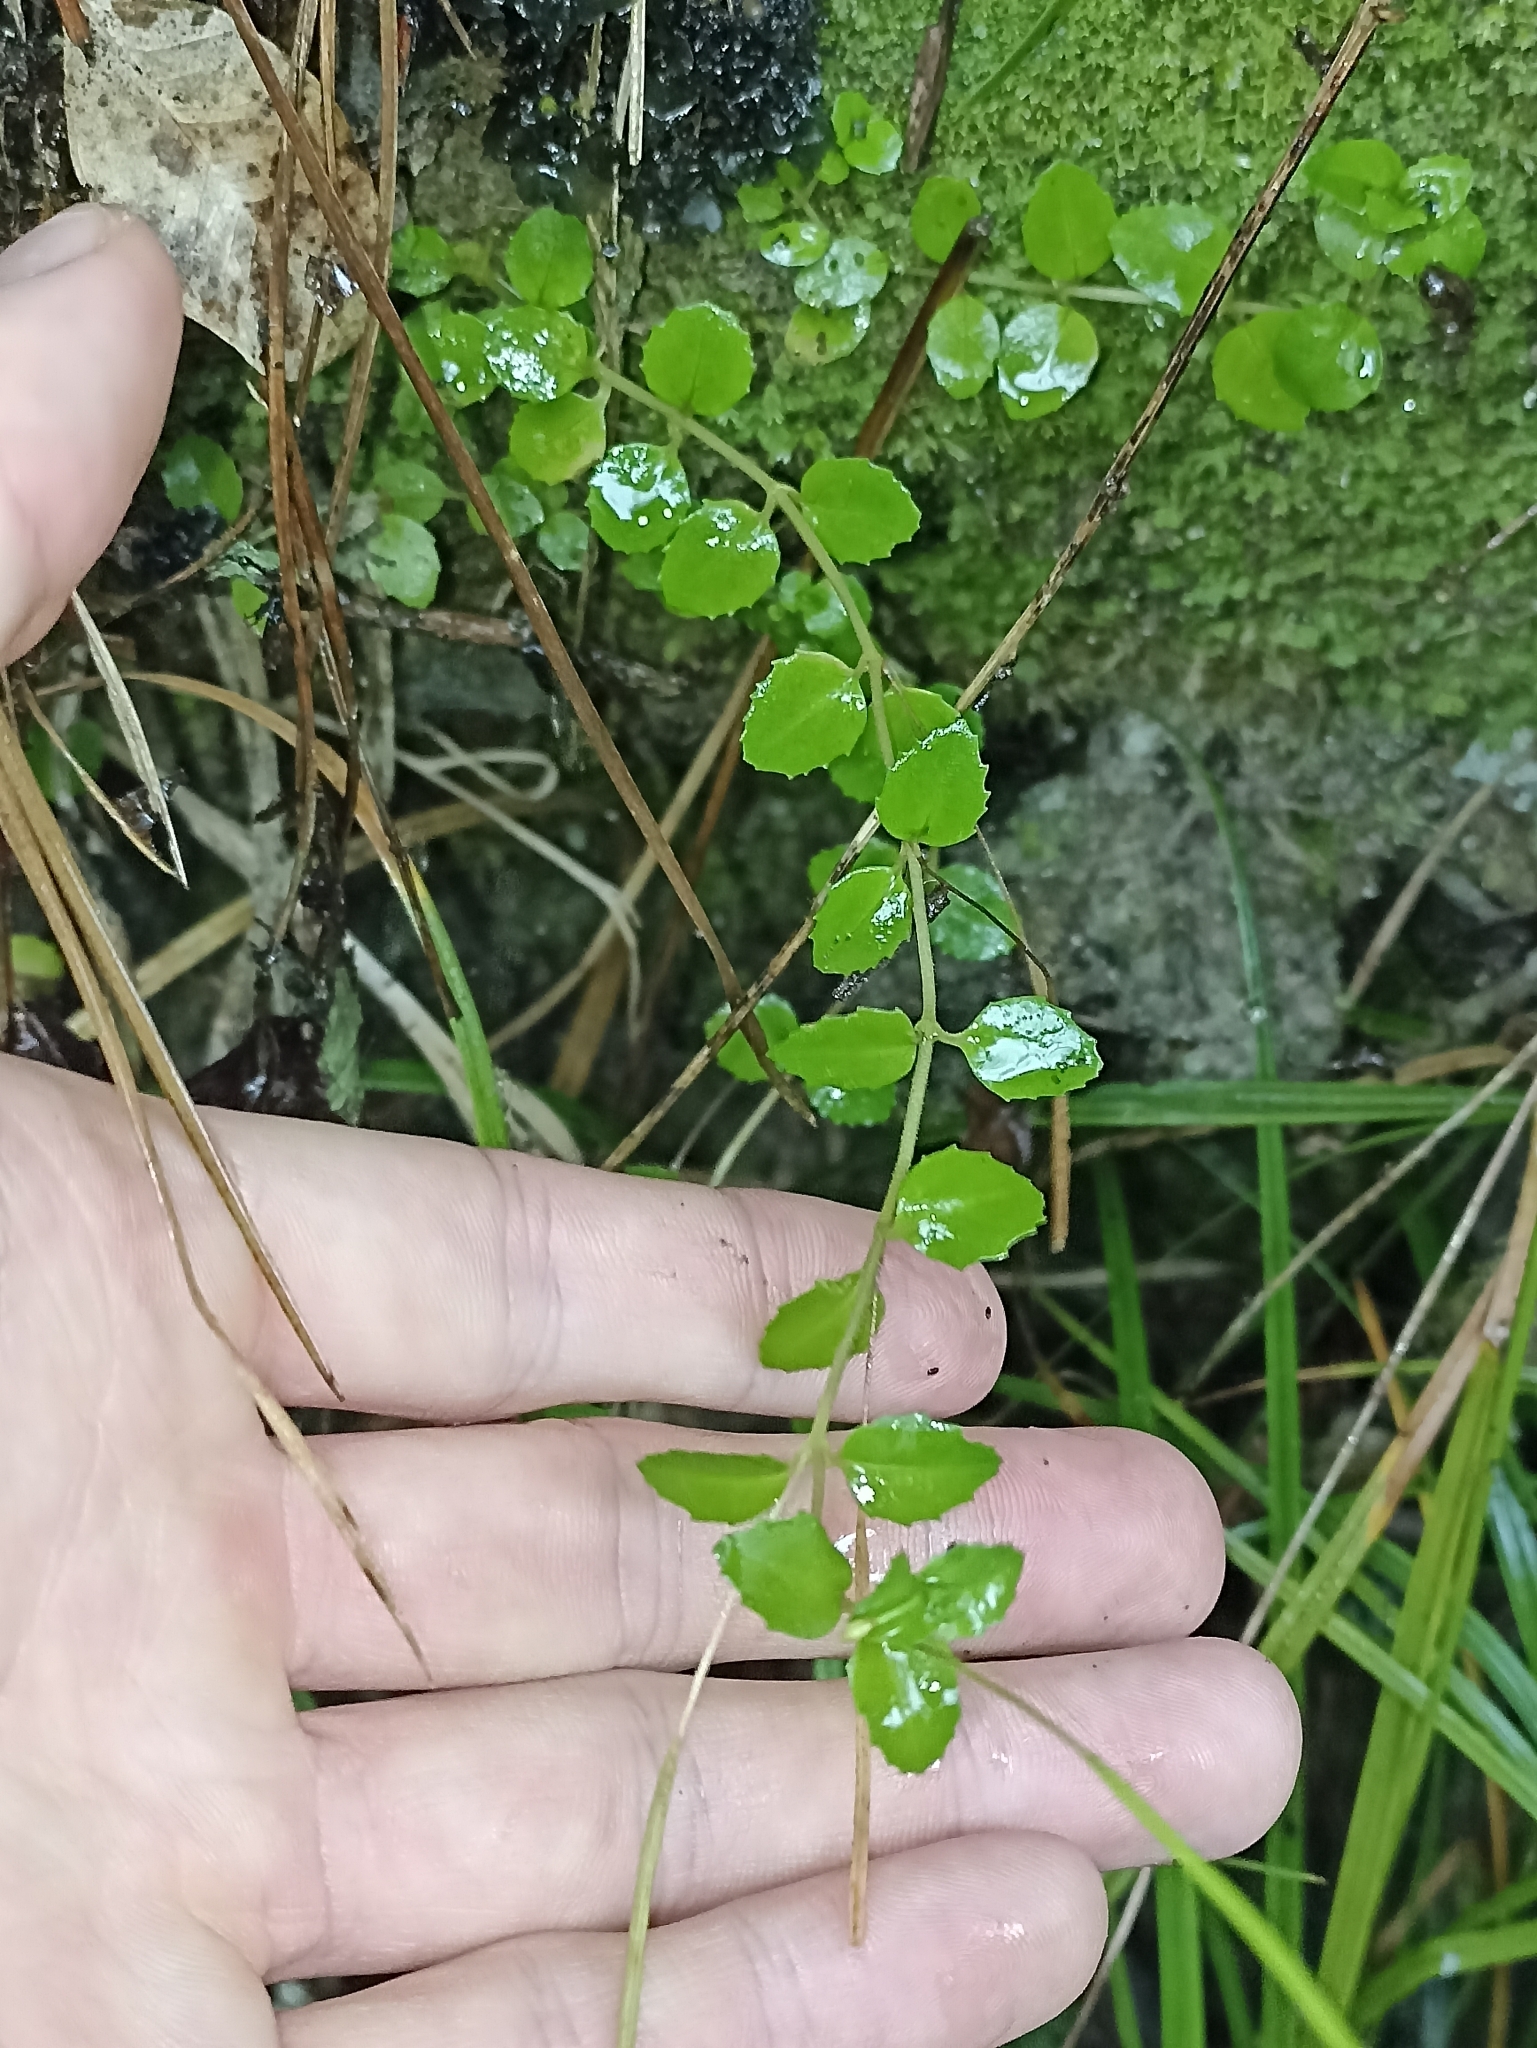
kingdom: Plantae
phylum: Tracheophyta
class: Magnoliopsida
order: Myrtales
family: Onagraceae
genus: Epilobium
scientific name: Epilobium rotundifolium
